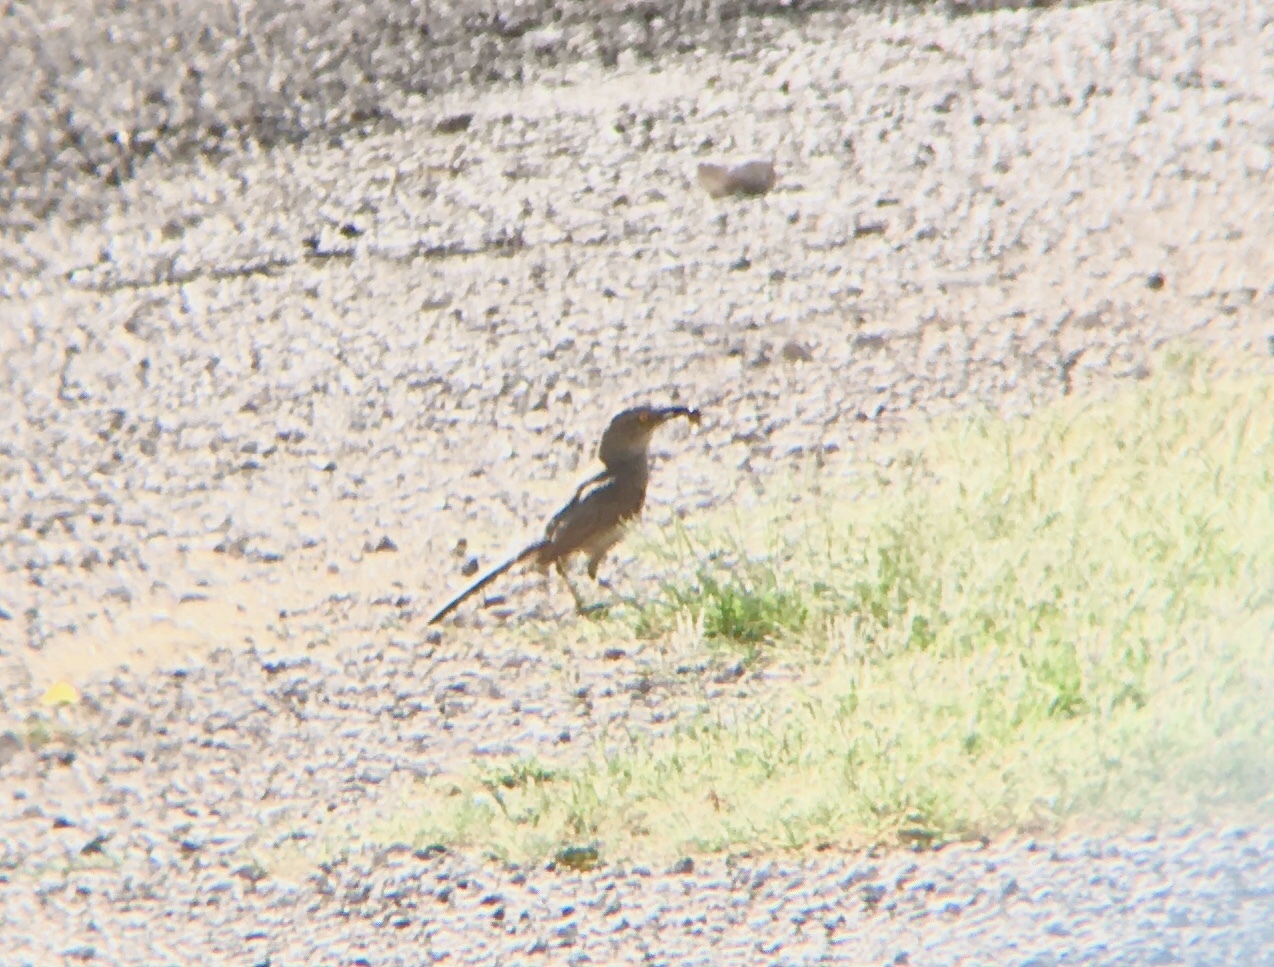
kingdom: Animalia
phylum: Chordata
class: Aves
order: Passeriformes
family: Mimidae
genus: Toxostoma
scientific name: Toxostoma curvirostre
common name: Curve-billed thrasher
